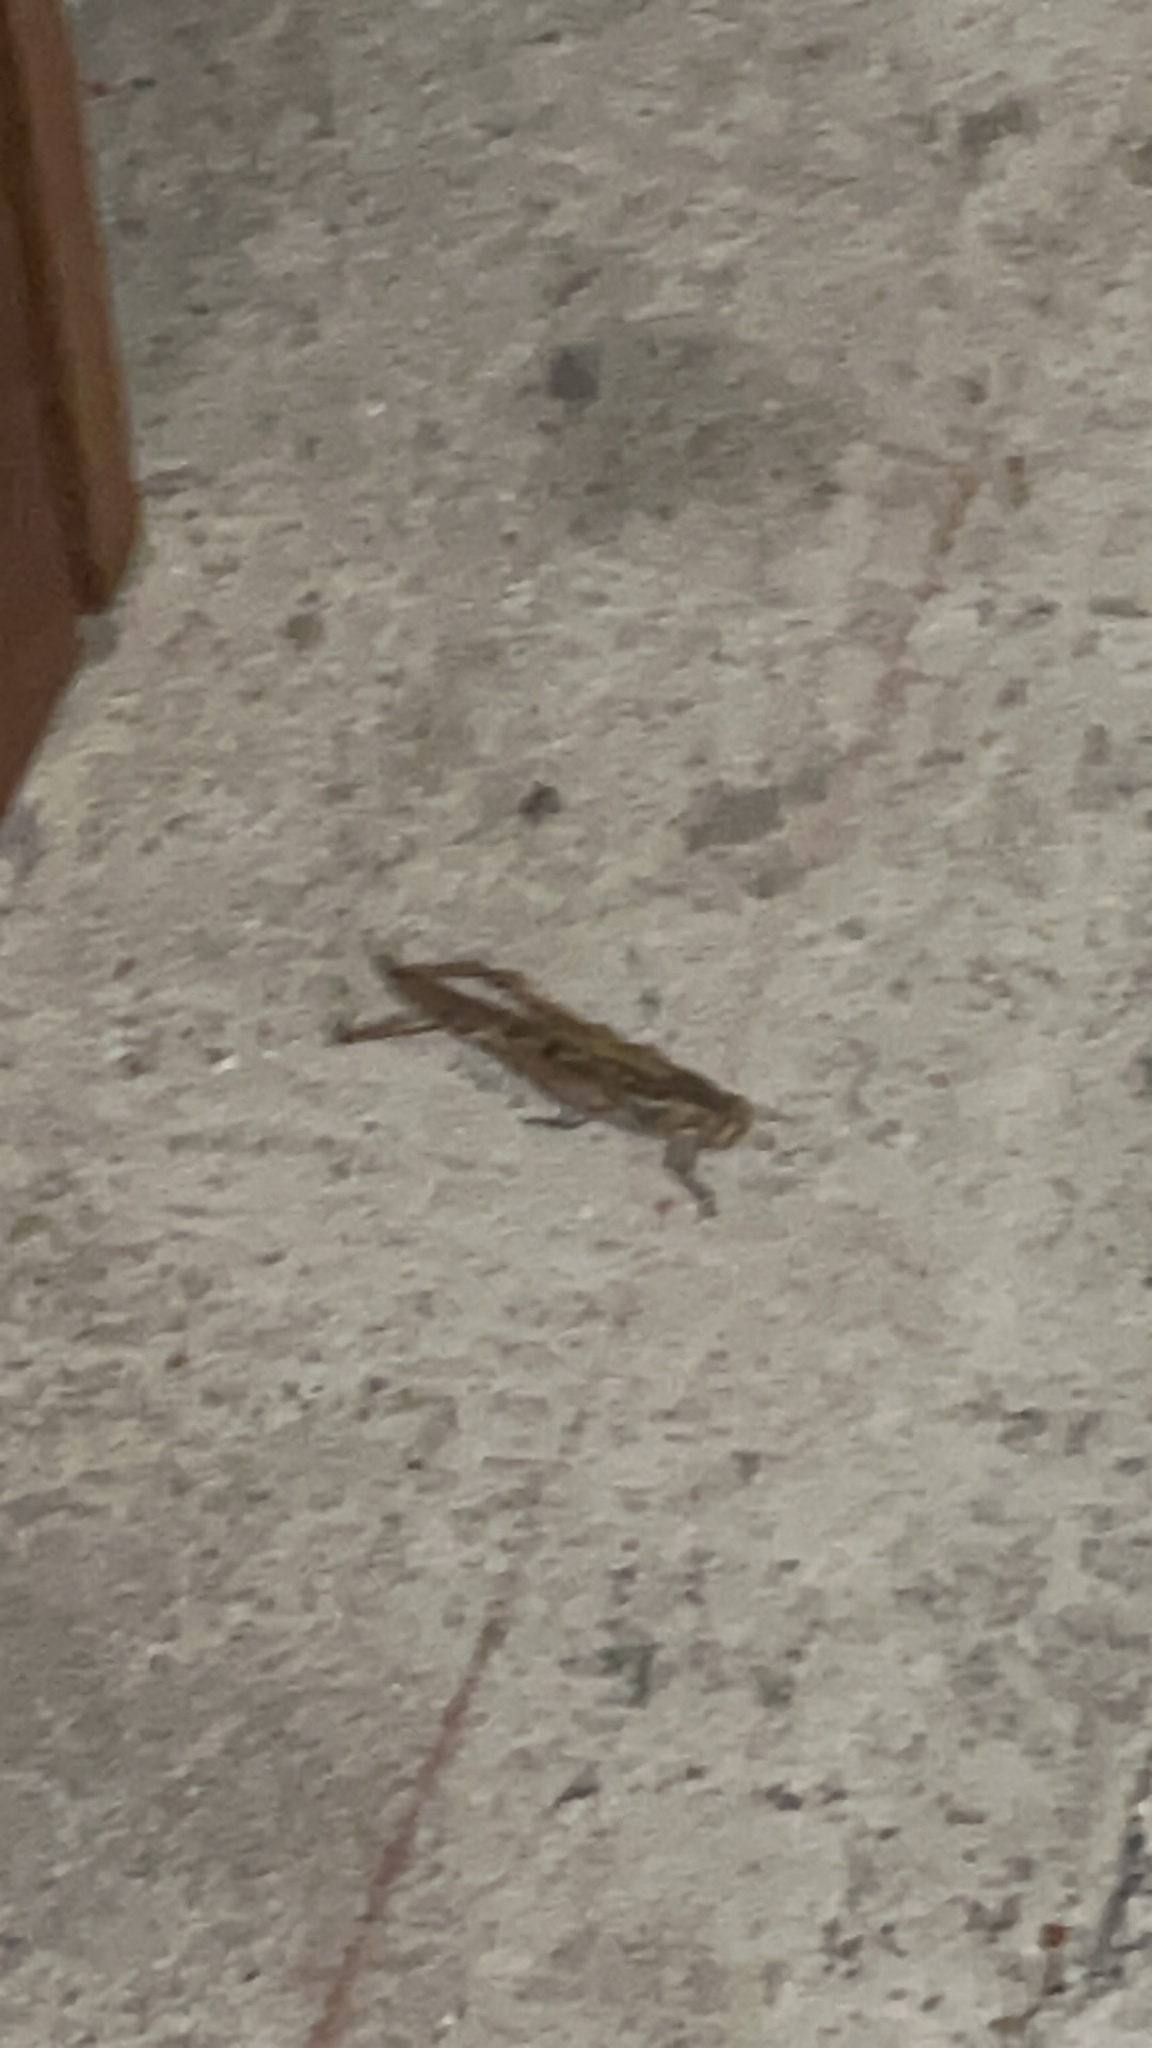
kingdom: Animalia
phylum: Arthropoda
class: Insecta
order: Orthoptera
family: Acrididae
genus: Schistocerca
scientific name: Schistocerca americana
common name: American bird locust
